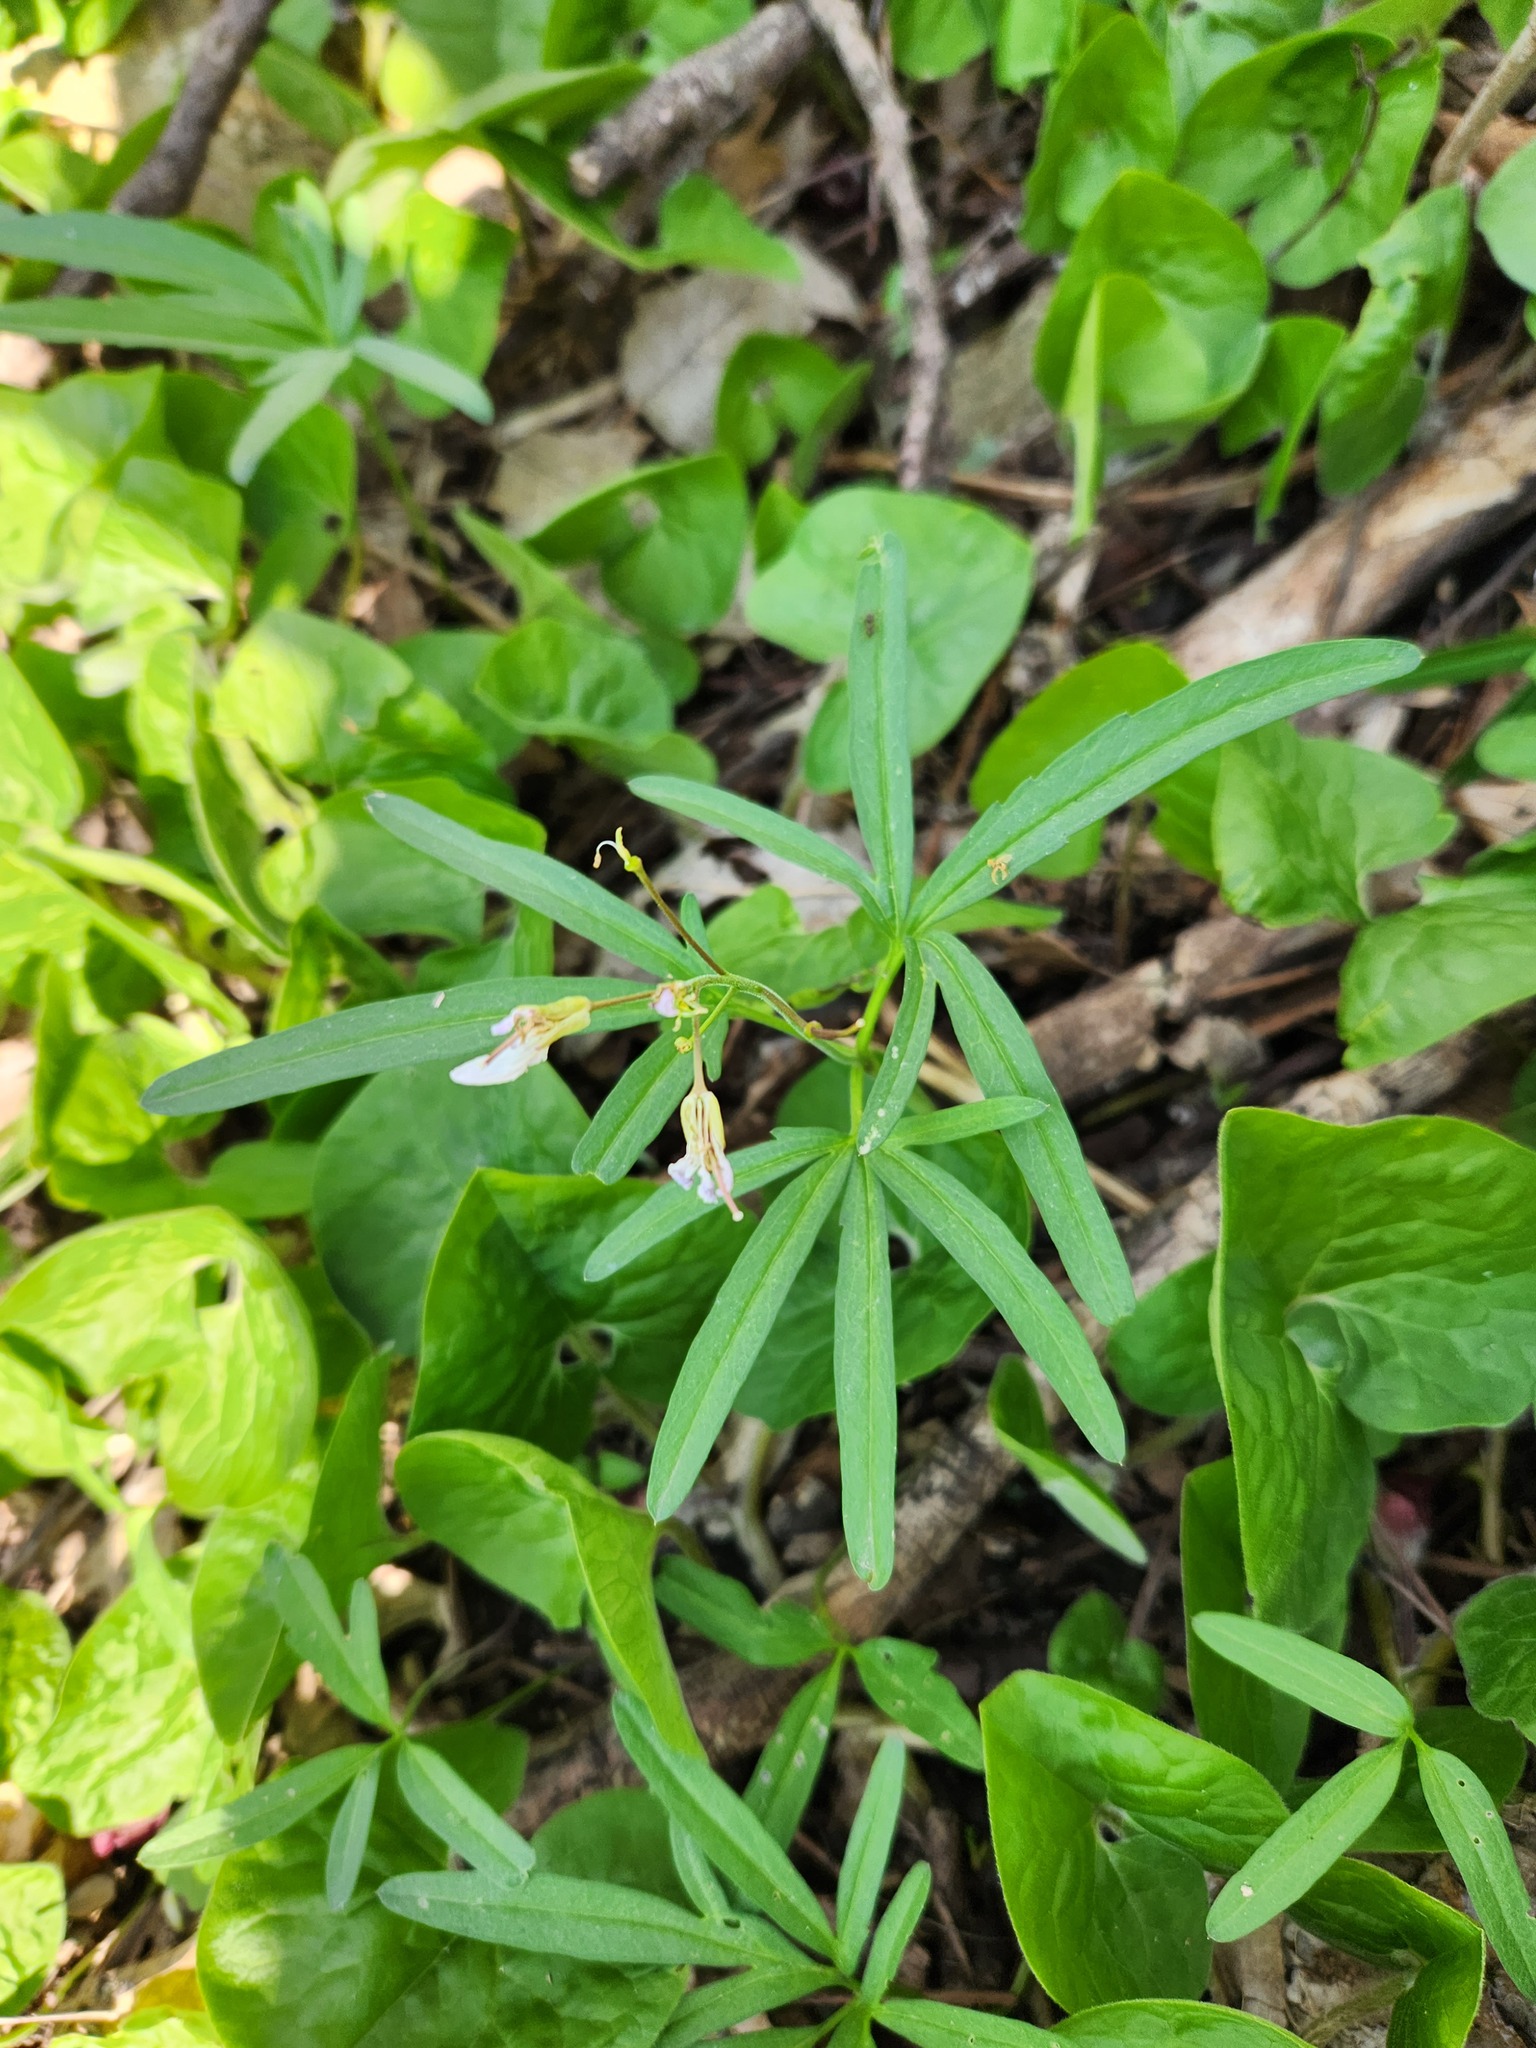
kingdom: Plantae
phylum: Tracheophyta
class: Magnoliopsida
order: Brassicales
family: Brassicaceae
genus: Cardamine
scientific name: Cardamine concatenata
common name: Cut-leaf toothcup
